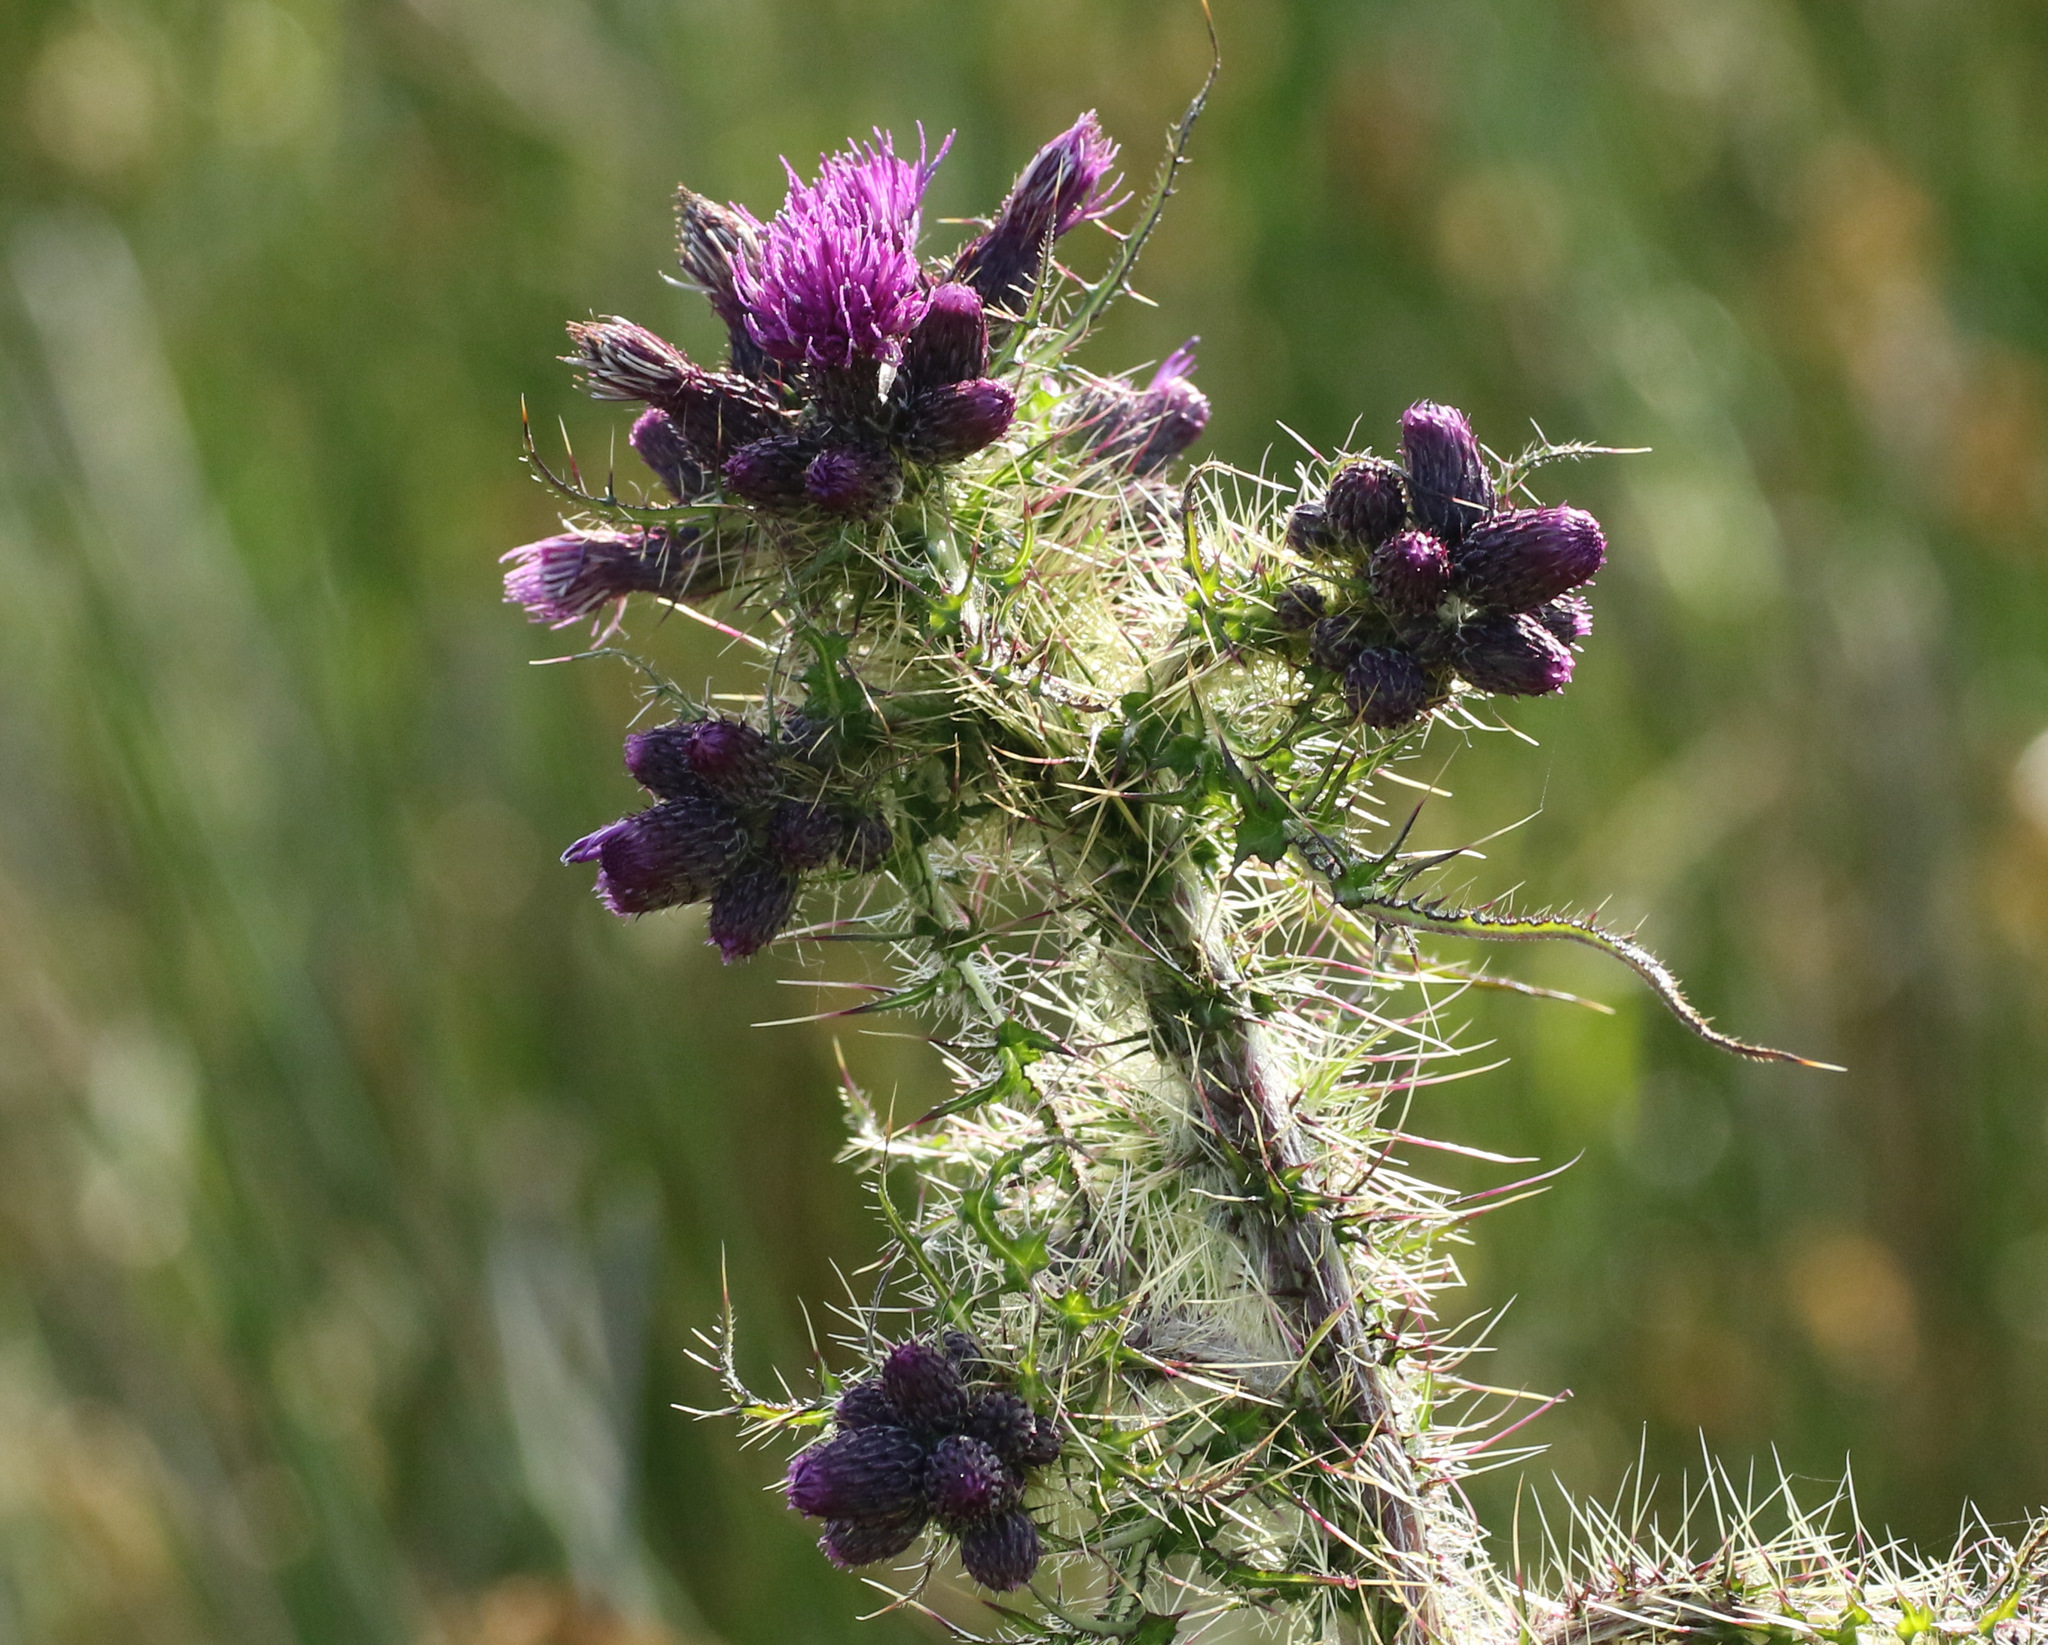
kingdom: Plantae
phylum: Tracheophyta
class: Magnoliopsida
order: Asterales
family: Asteraceae
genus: Cirsium
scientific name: Cirsium palustre
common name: Marsh thistle
